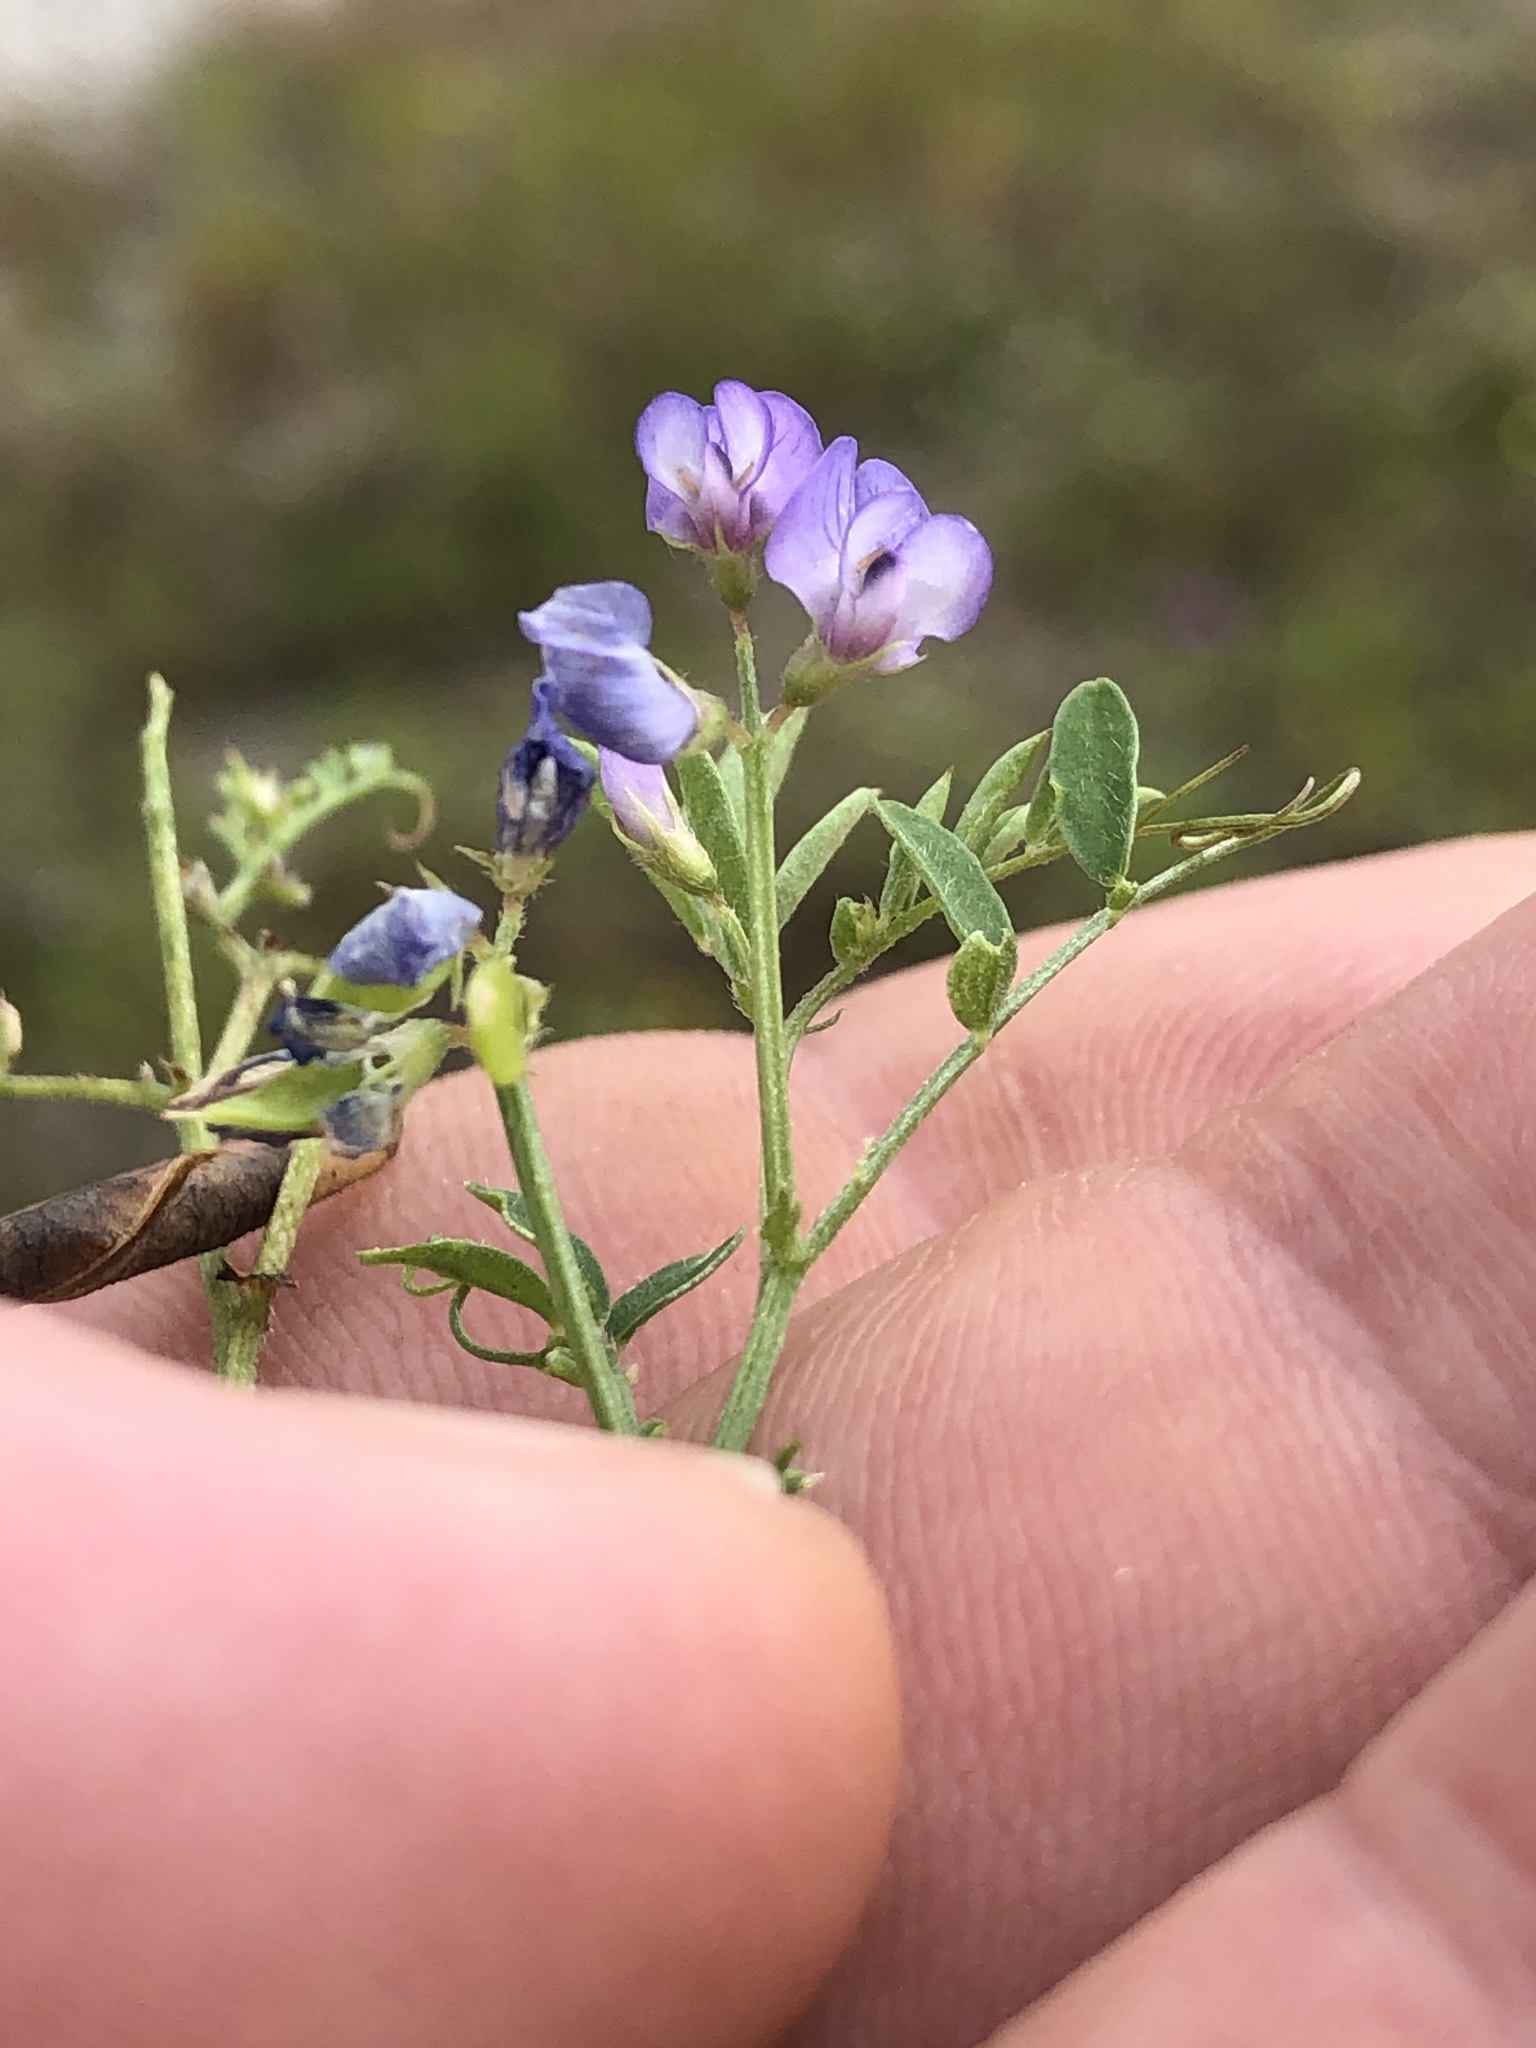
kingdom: Plantae
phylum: Tracheophyta
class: Magnoliopsida
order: Fabales
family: Fabaceae
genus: Vicia
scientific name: Vicia ludoviciana
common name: Louisiana vetch
